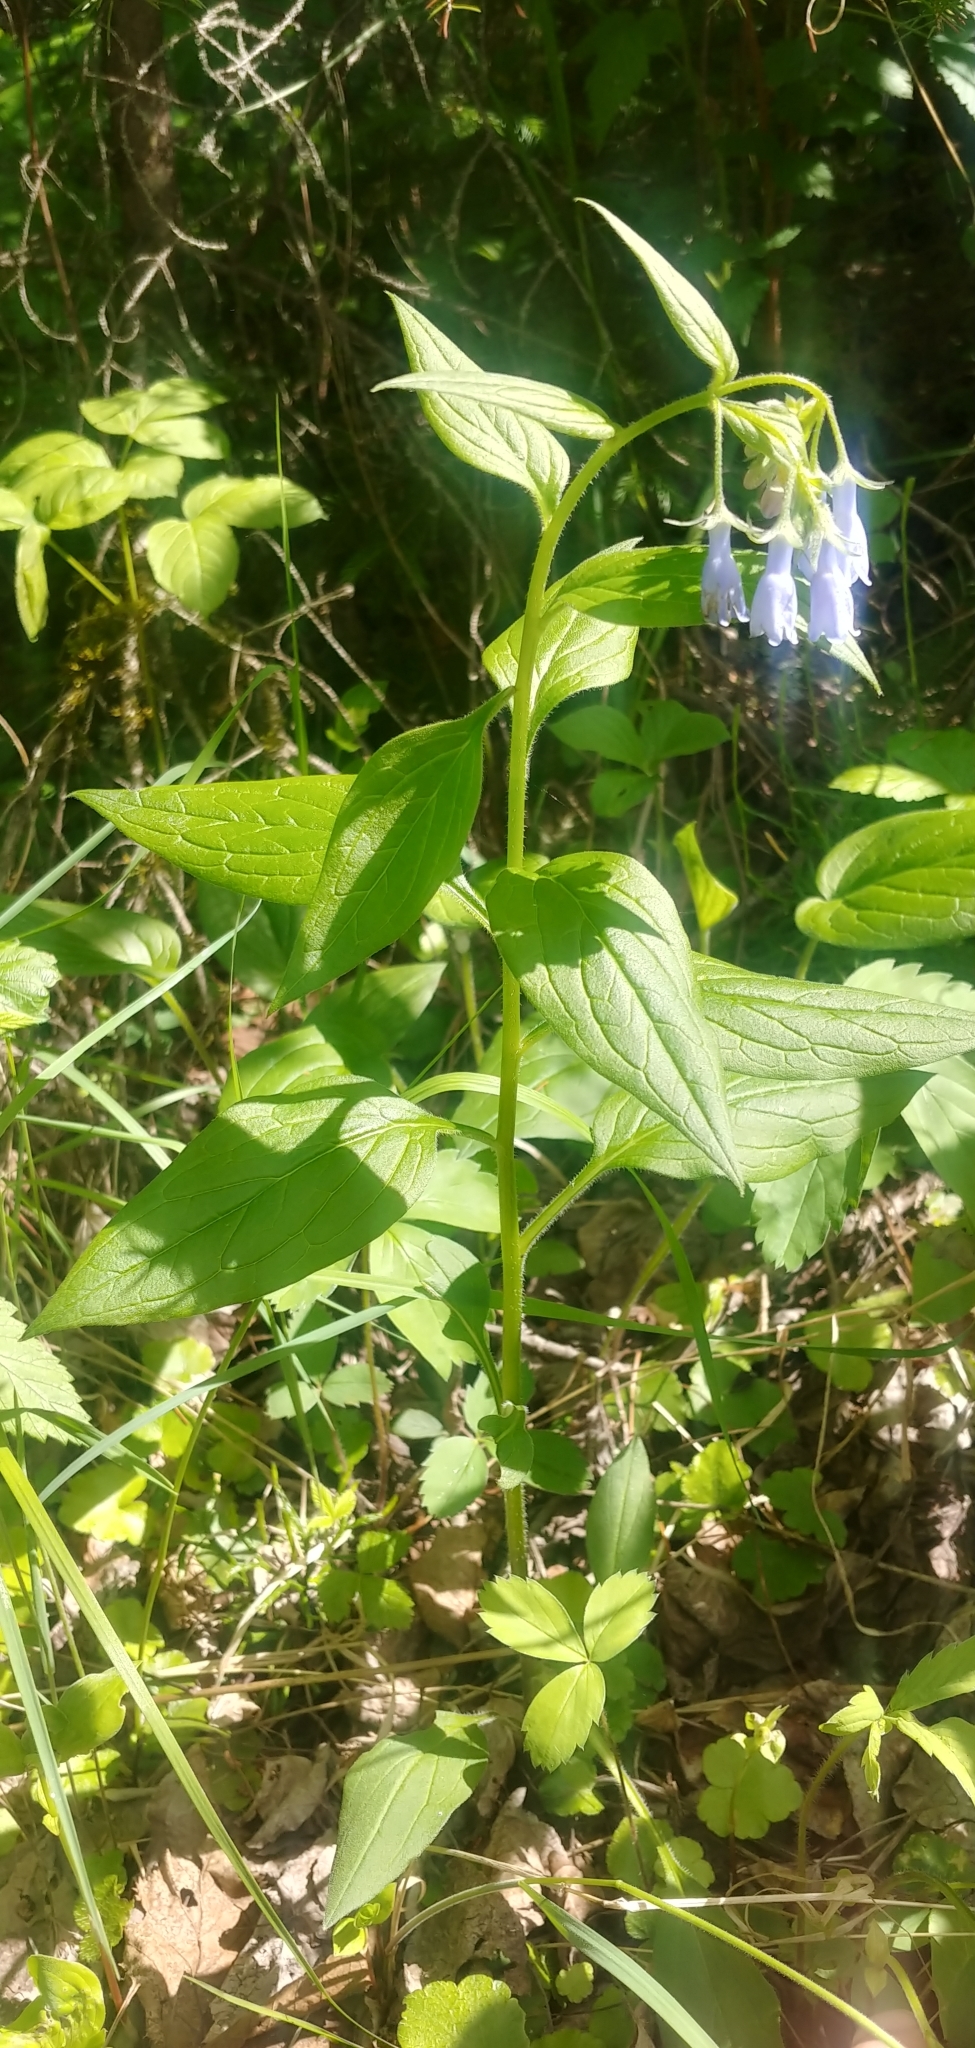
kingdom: Plantae
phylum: Tracheophyta
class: Magnoliopsida
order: Boraginales
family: Boraginaceae
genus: Mertensia
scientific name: Mertensia paniculata
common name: Panicled bluebells
